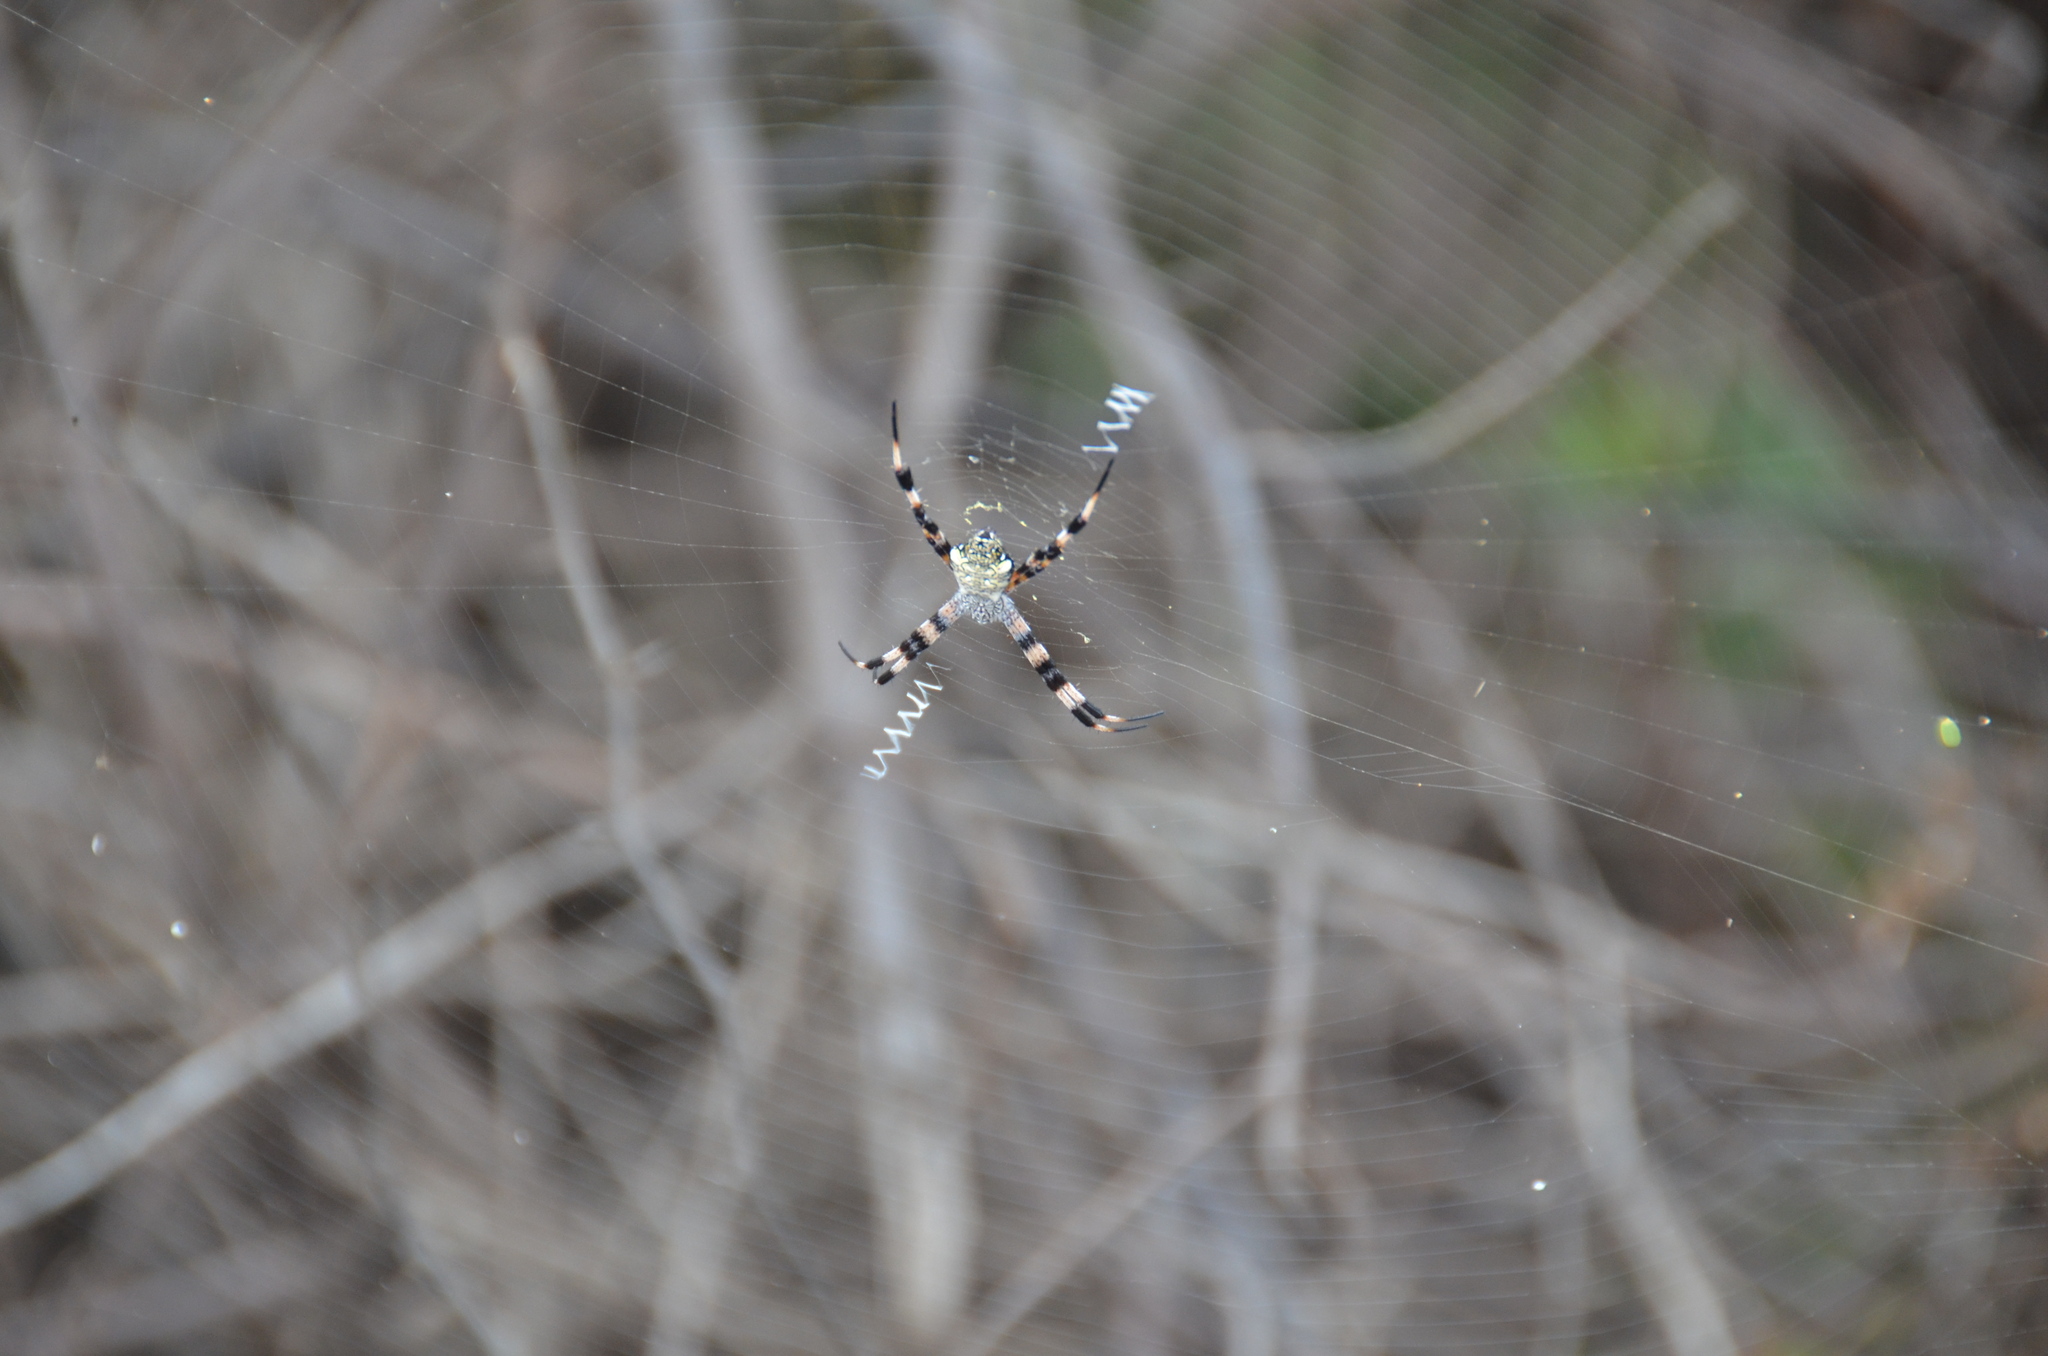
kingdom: Animalia
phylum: Arthropoda
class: Arachnida
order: Araneae
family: Araneidae
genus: Argiope
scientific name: Argiope appensa
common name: Garden spider
